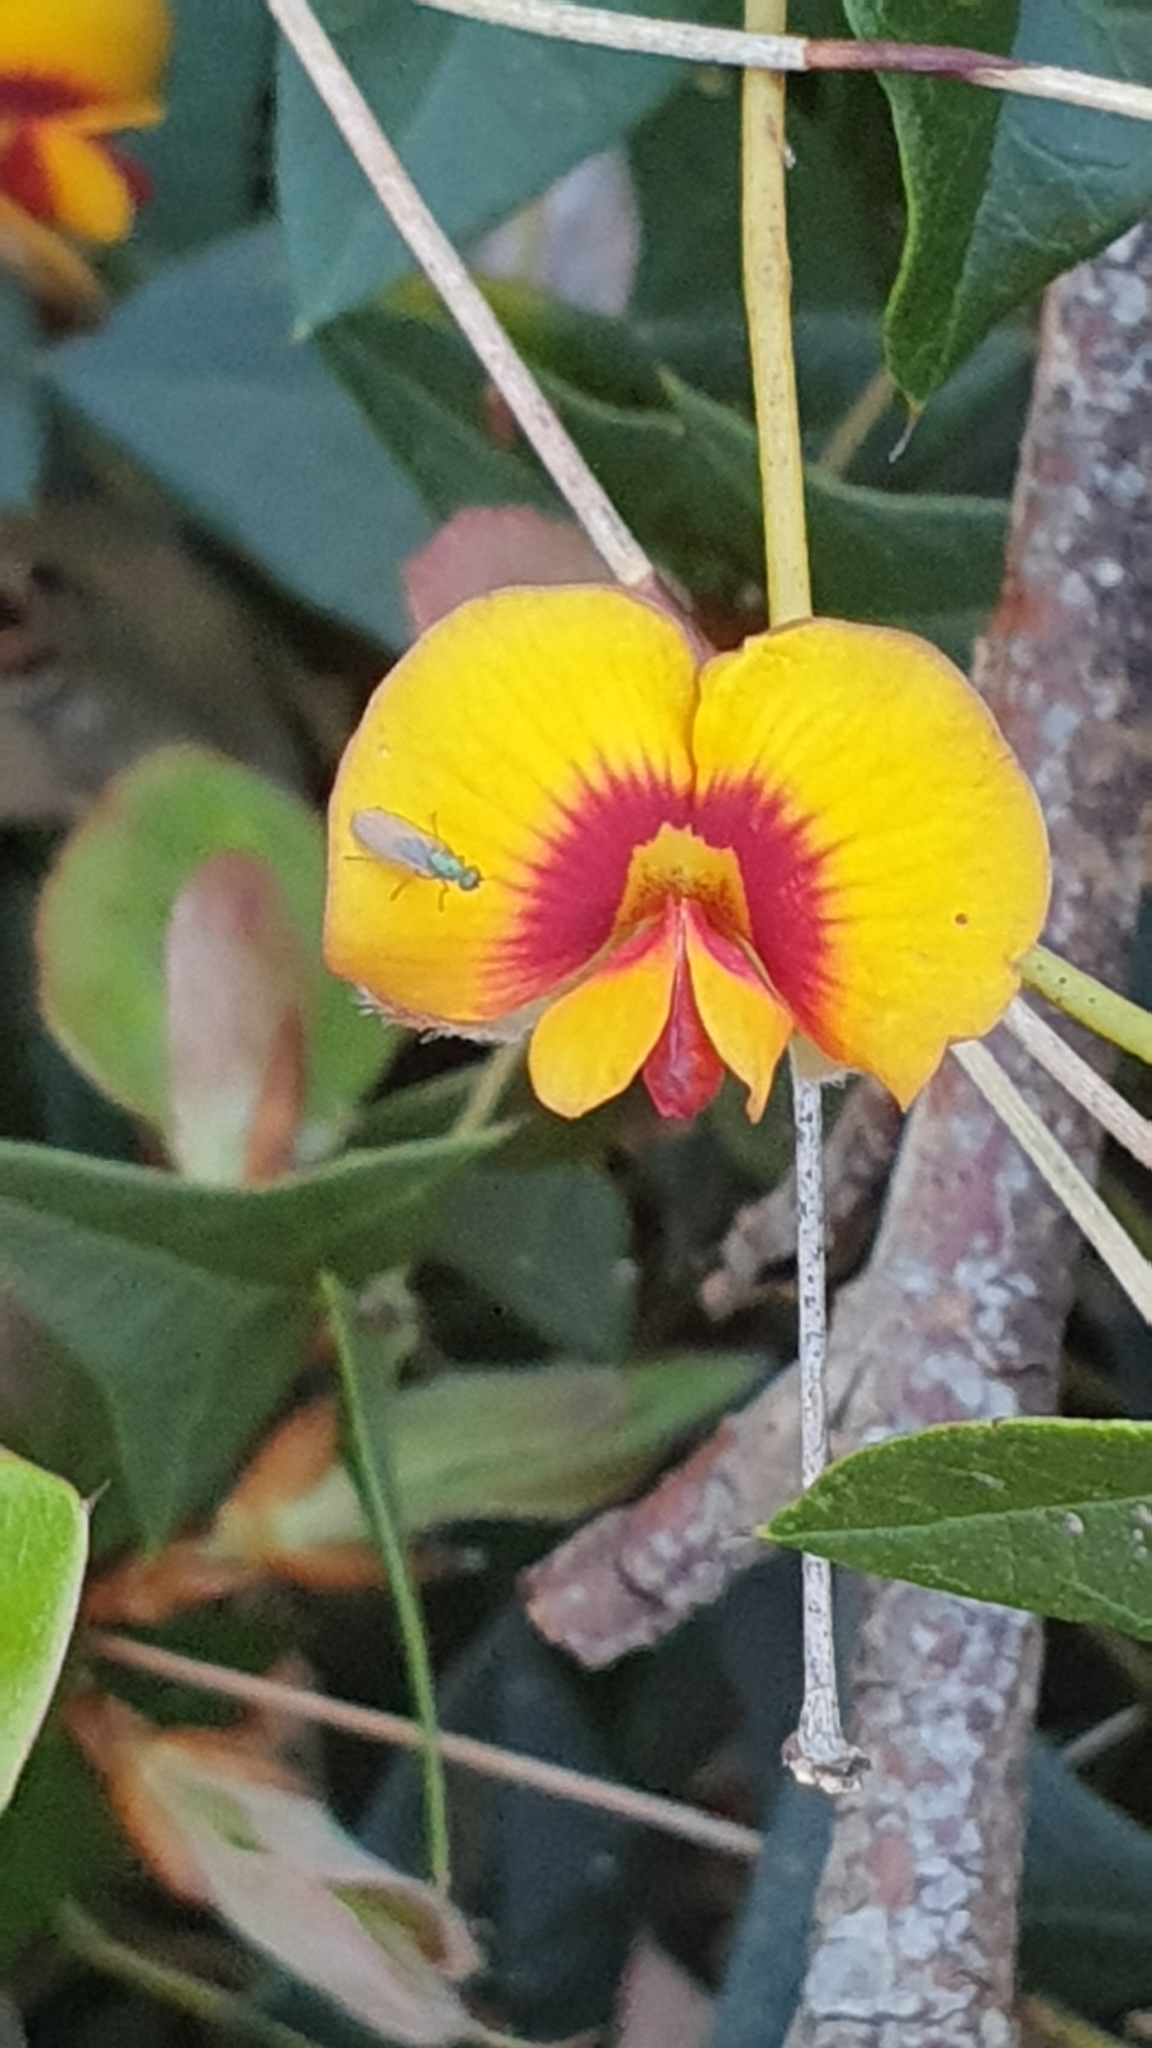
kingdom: Plantae
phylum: Tracheophyta
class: Magnoliopsida
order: Fabales
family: Fabaceae
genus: Platylobium
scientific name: Platylobium obtusangulum
